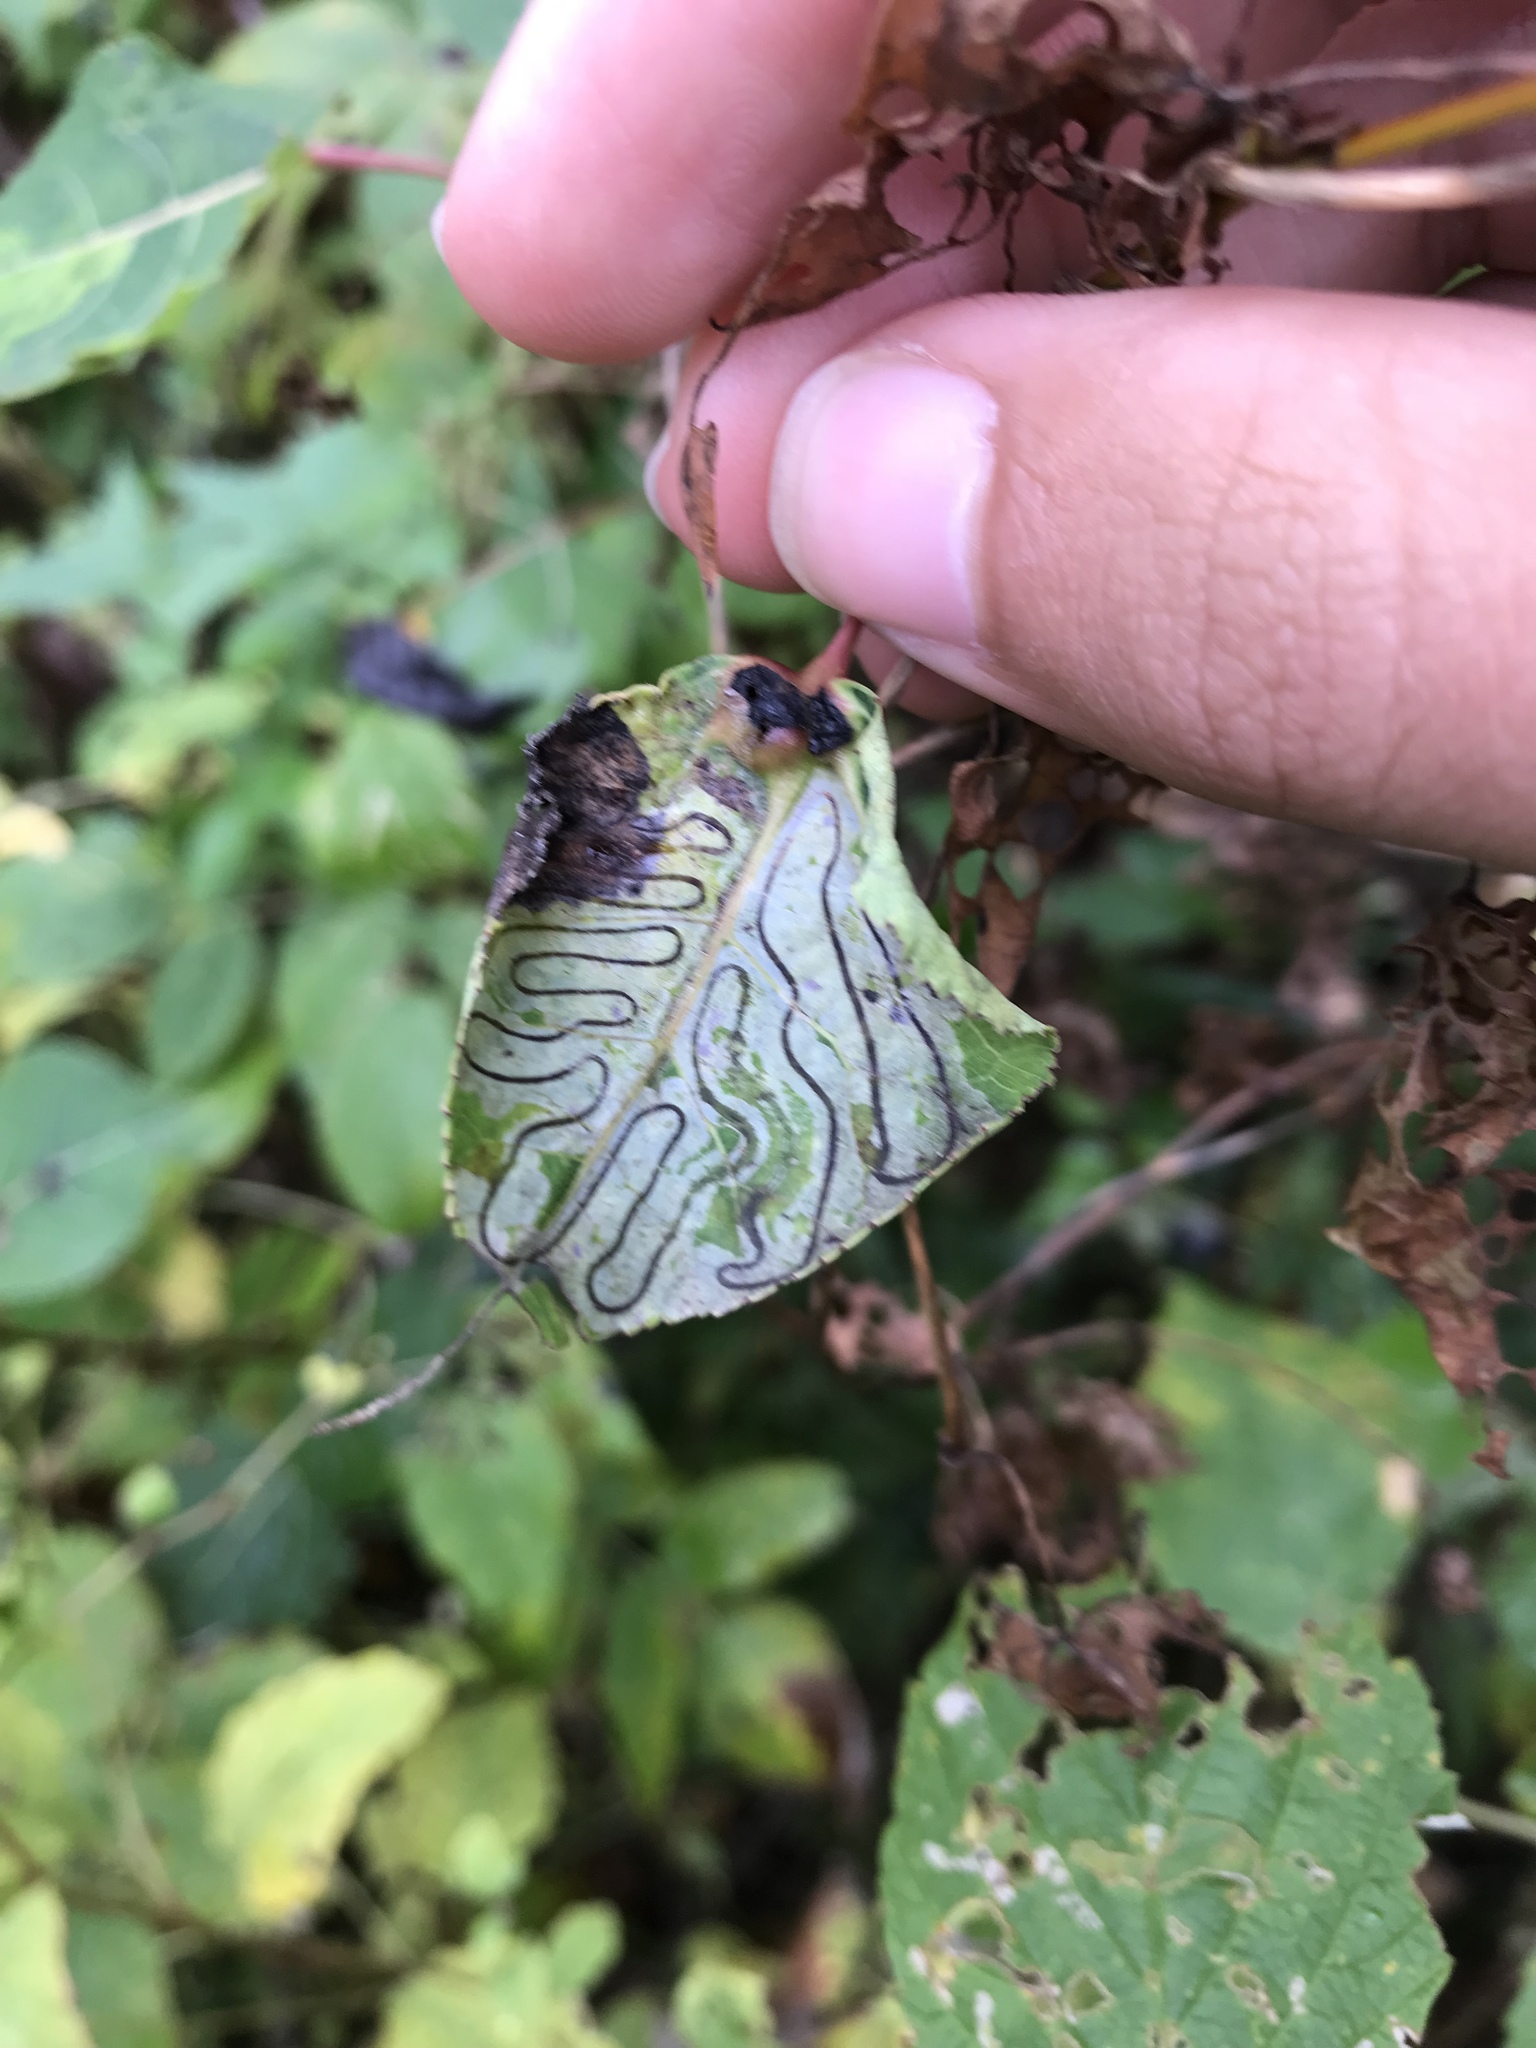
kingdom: Animalia
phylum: Arthropoda
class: Insecta
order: Lepidoptera
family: Gracillariidae
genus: Phyllocnistis
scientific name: Phyllocnistis populiella
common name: Aspen serpentine leafminer moth
